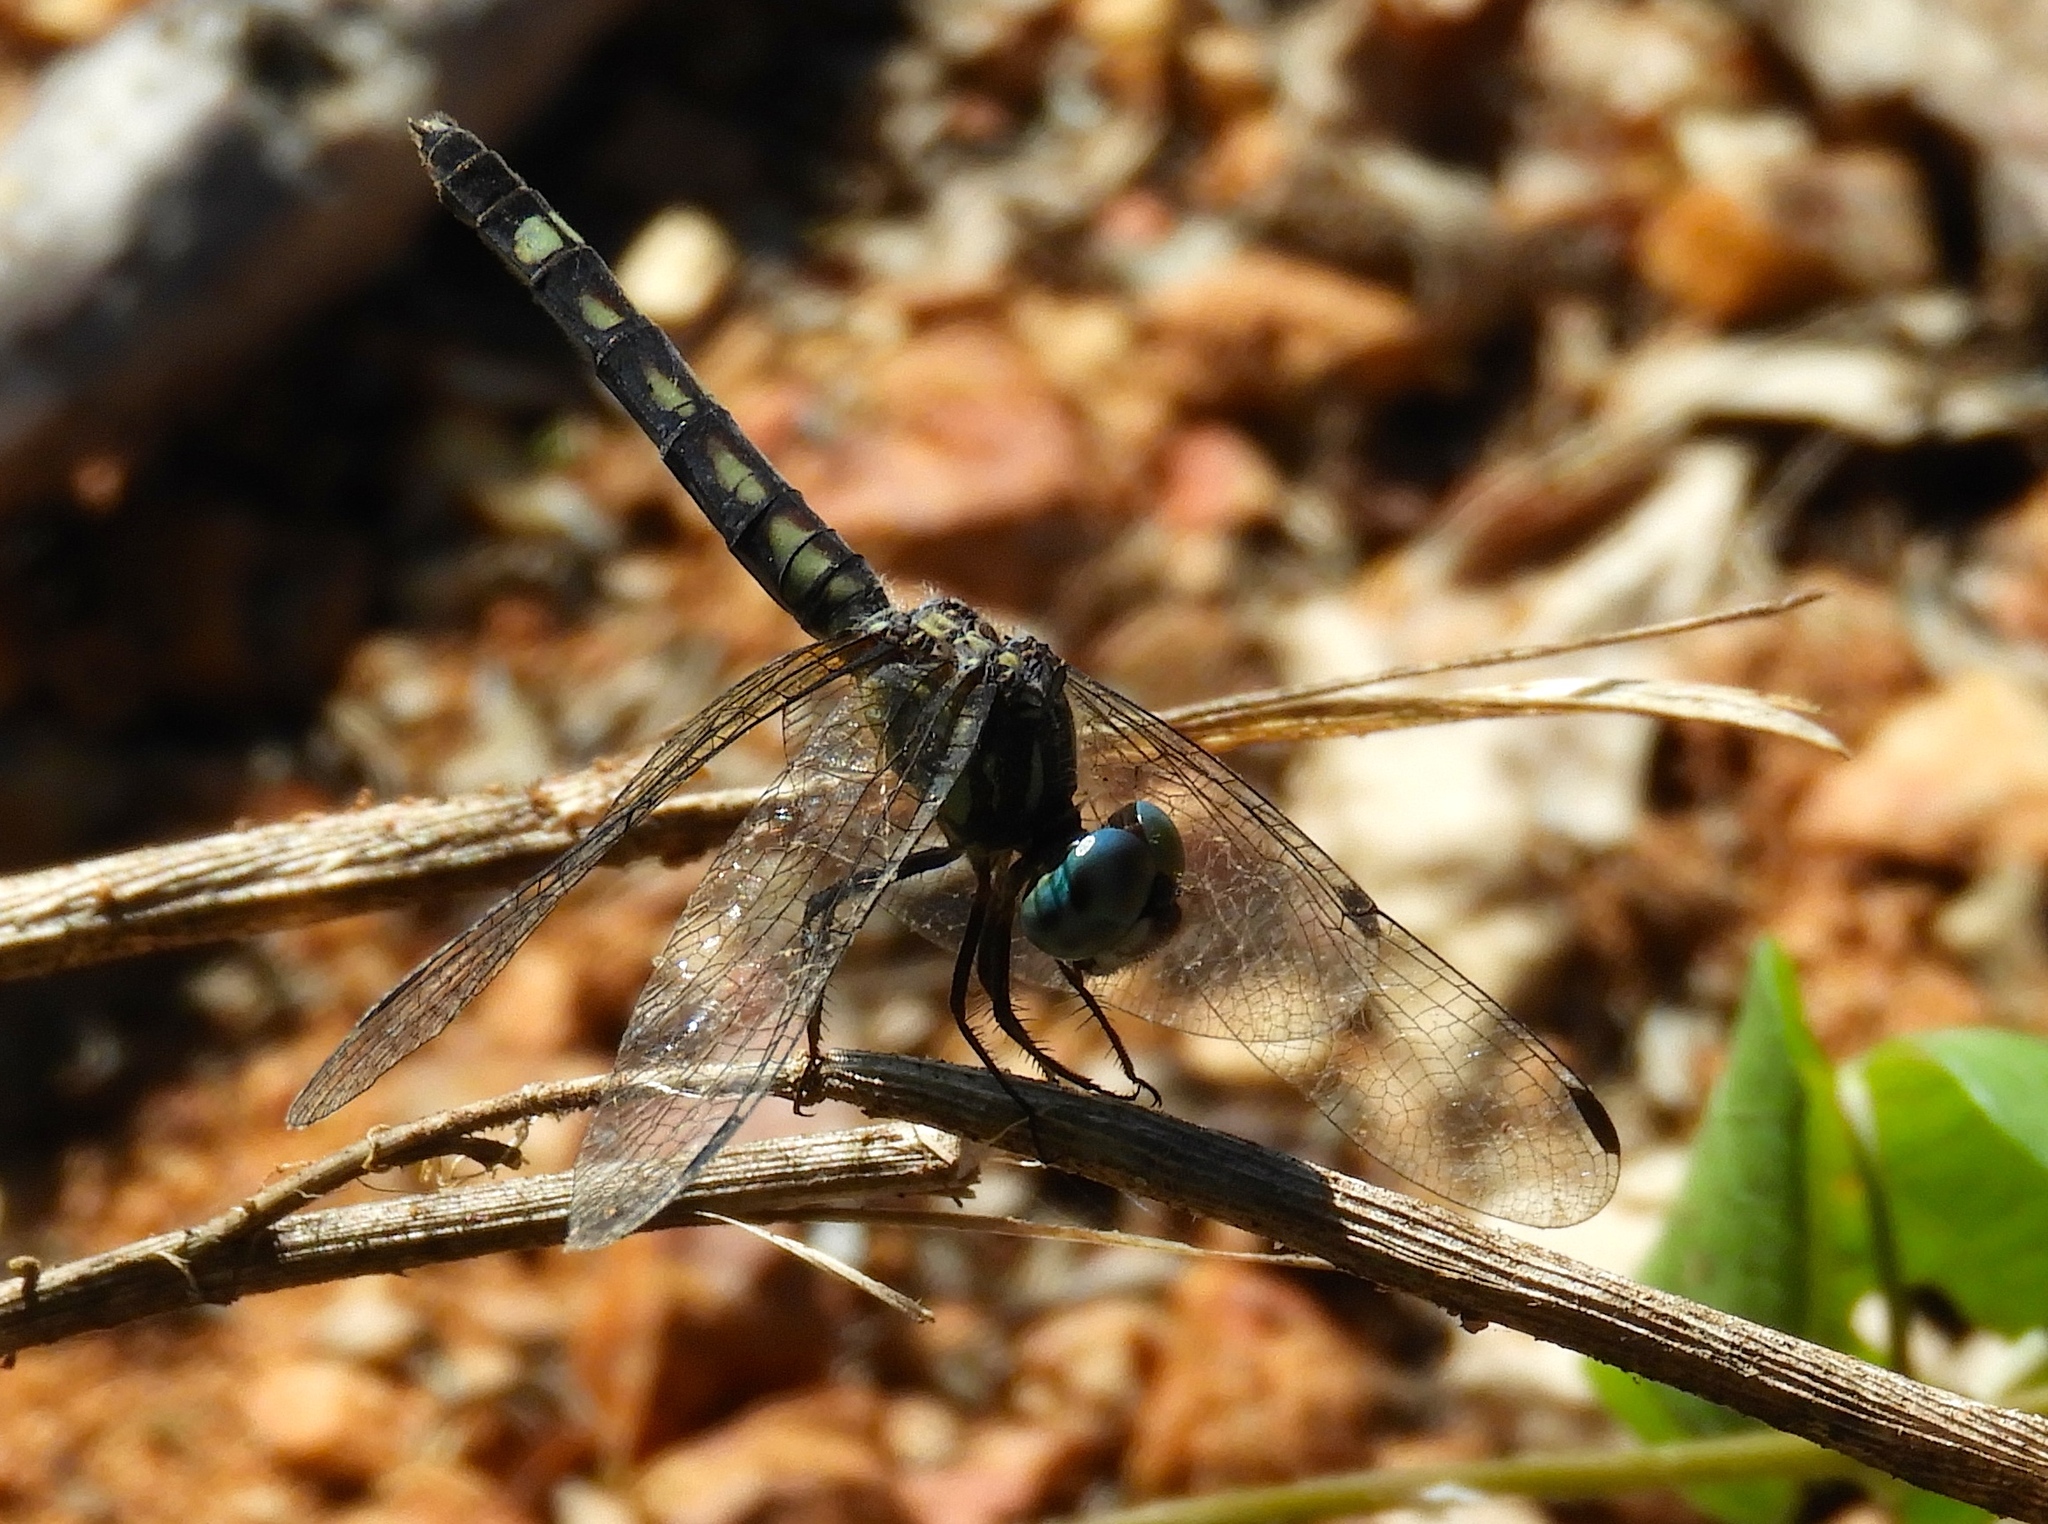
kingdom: Animalia
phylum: Arthropoda
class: Insecta
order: Odonata
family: Libellulidae
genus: Micrathyria
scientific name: Micrathyria hagenii
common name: Thornbush dasher
